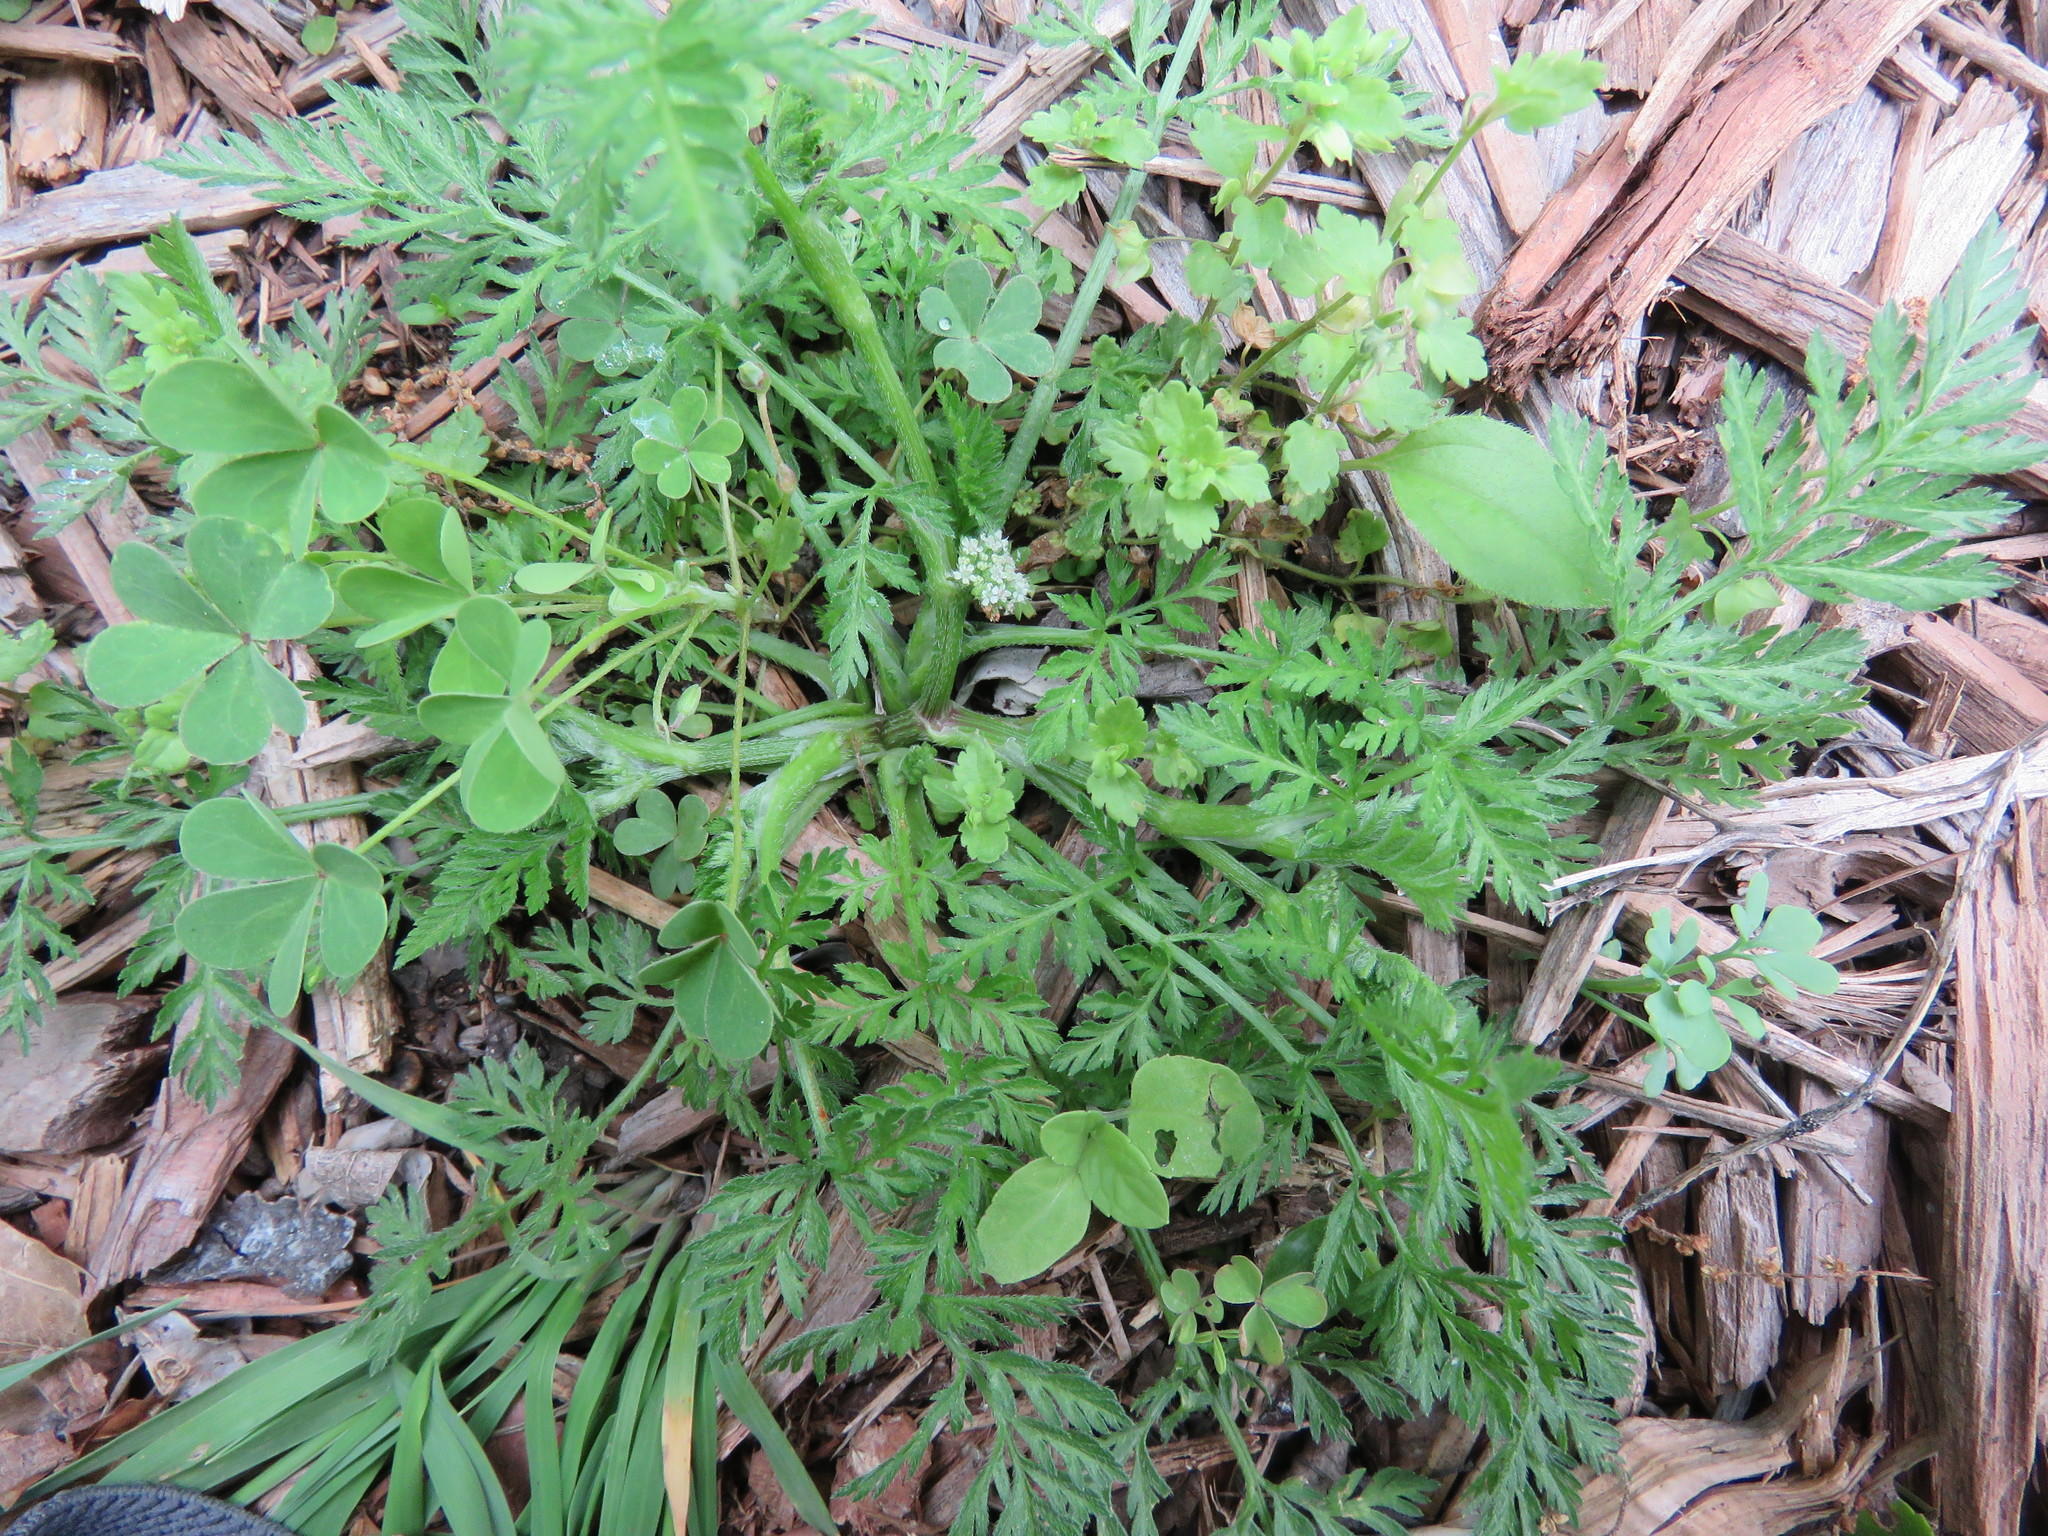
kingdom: Plantae
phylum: Tracheophyta
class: Magnoliopsida
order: Apiales
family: Apiaceae
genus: Torilis
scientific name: Torilis nodosa
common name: Knotted hedge-parsley
